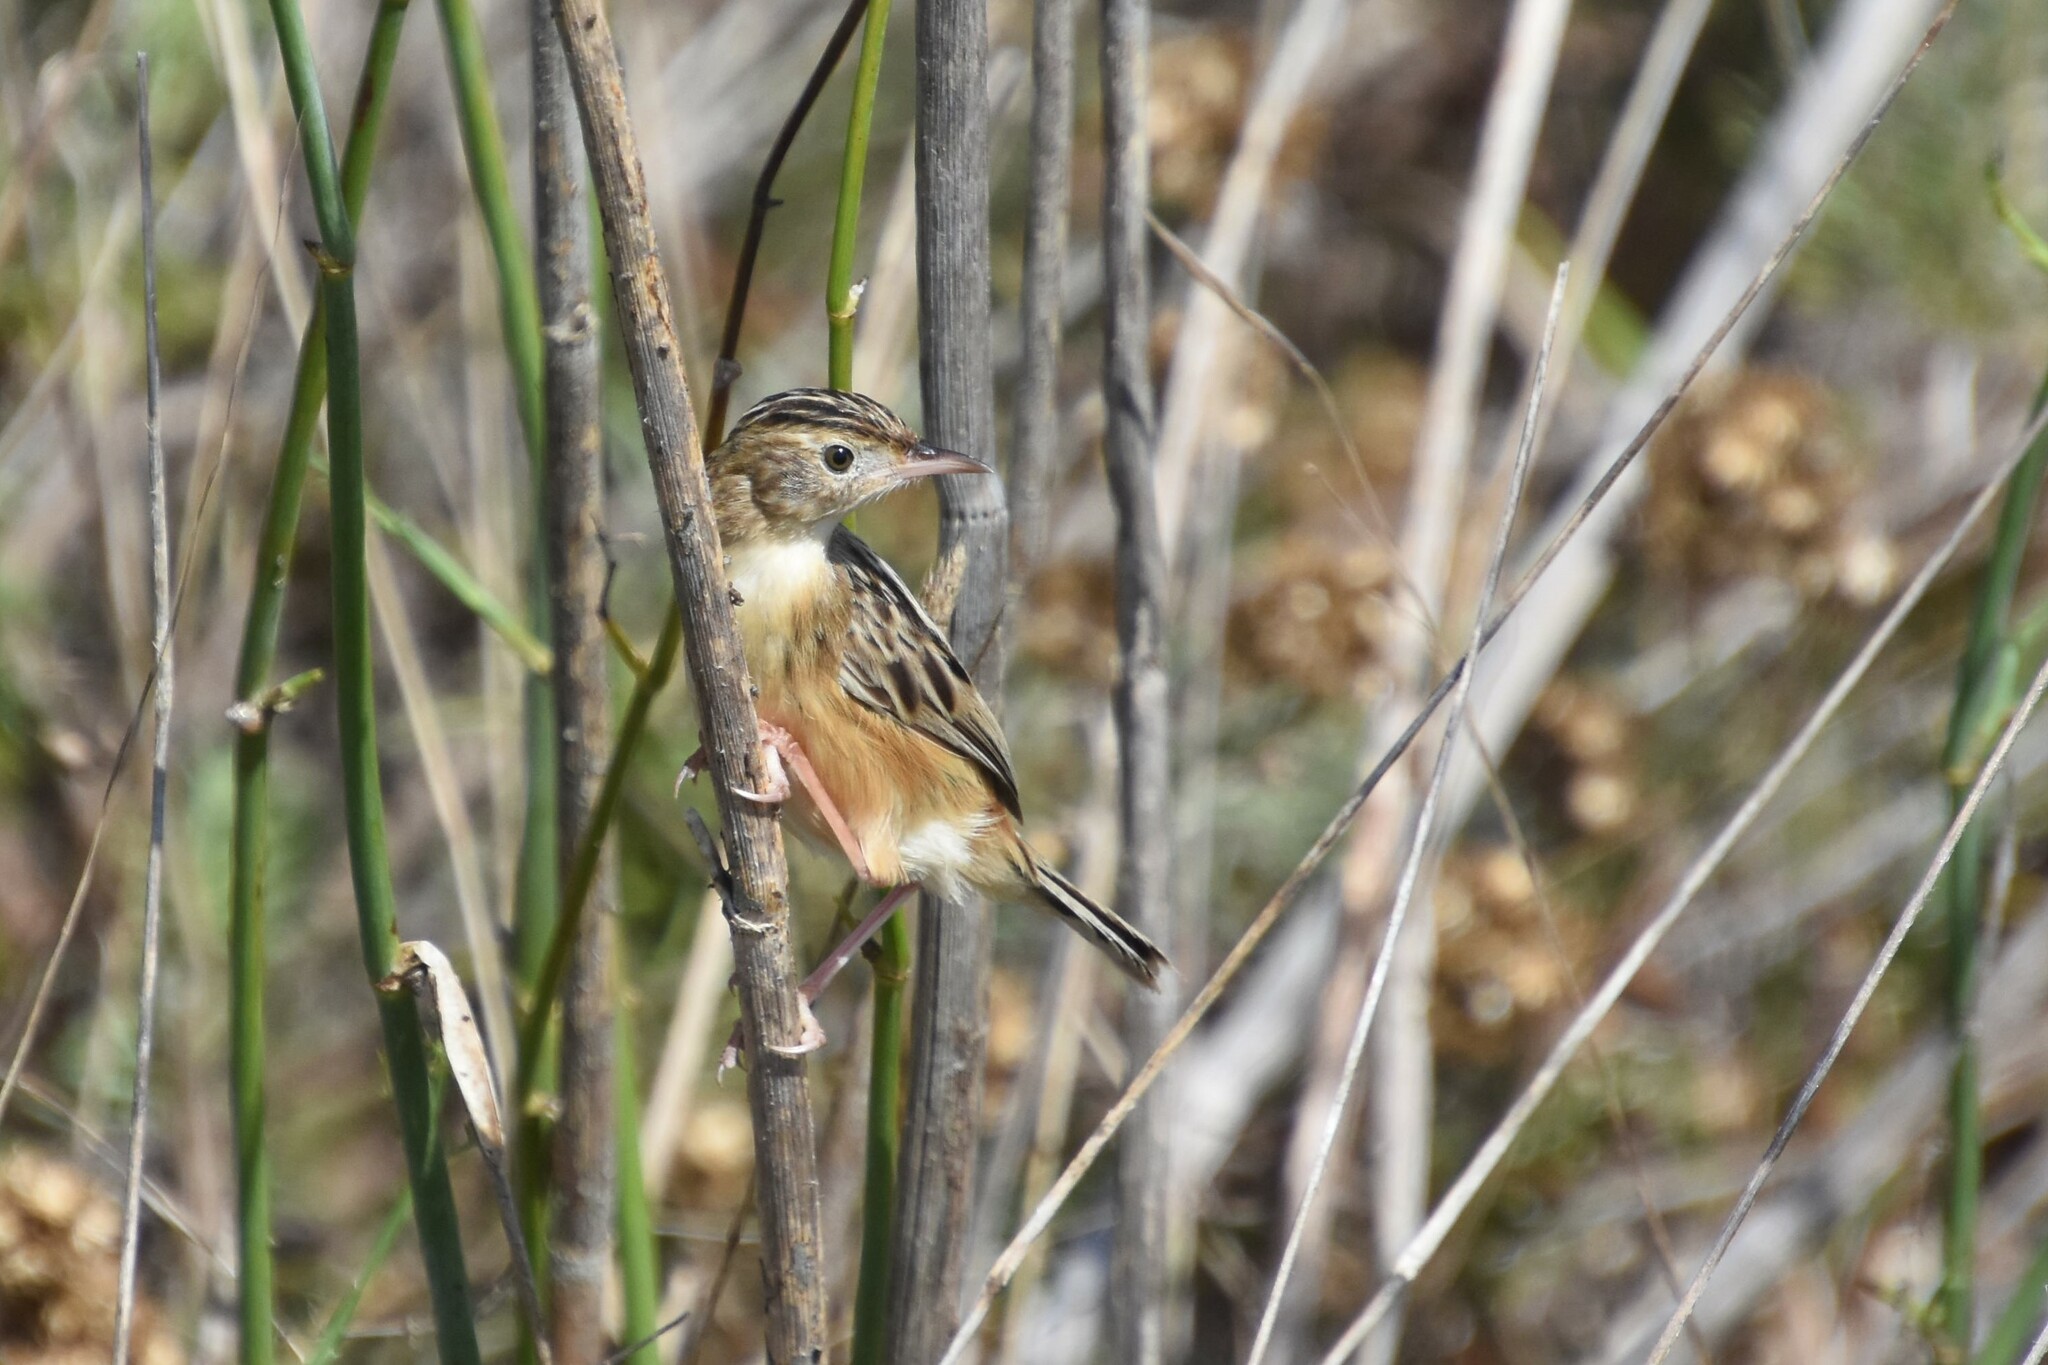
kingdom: Animalia
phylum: Chordata
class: Aves
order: Passeriformes
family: Cisticolidae
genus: Cisticola
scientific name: Cisticola juncidis
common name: Zitting cisticola
